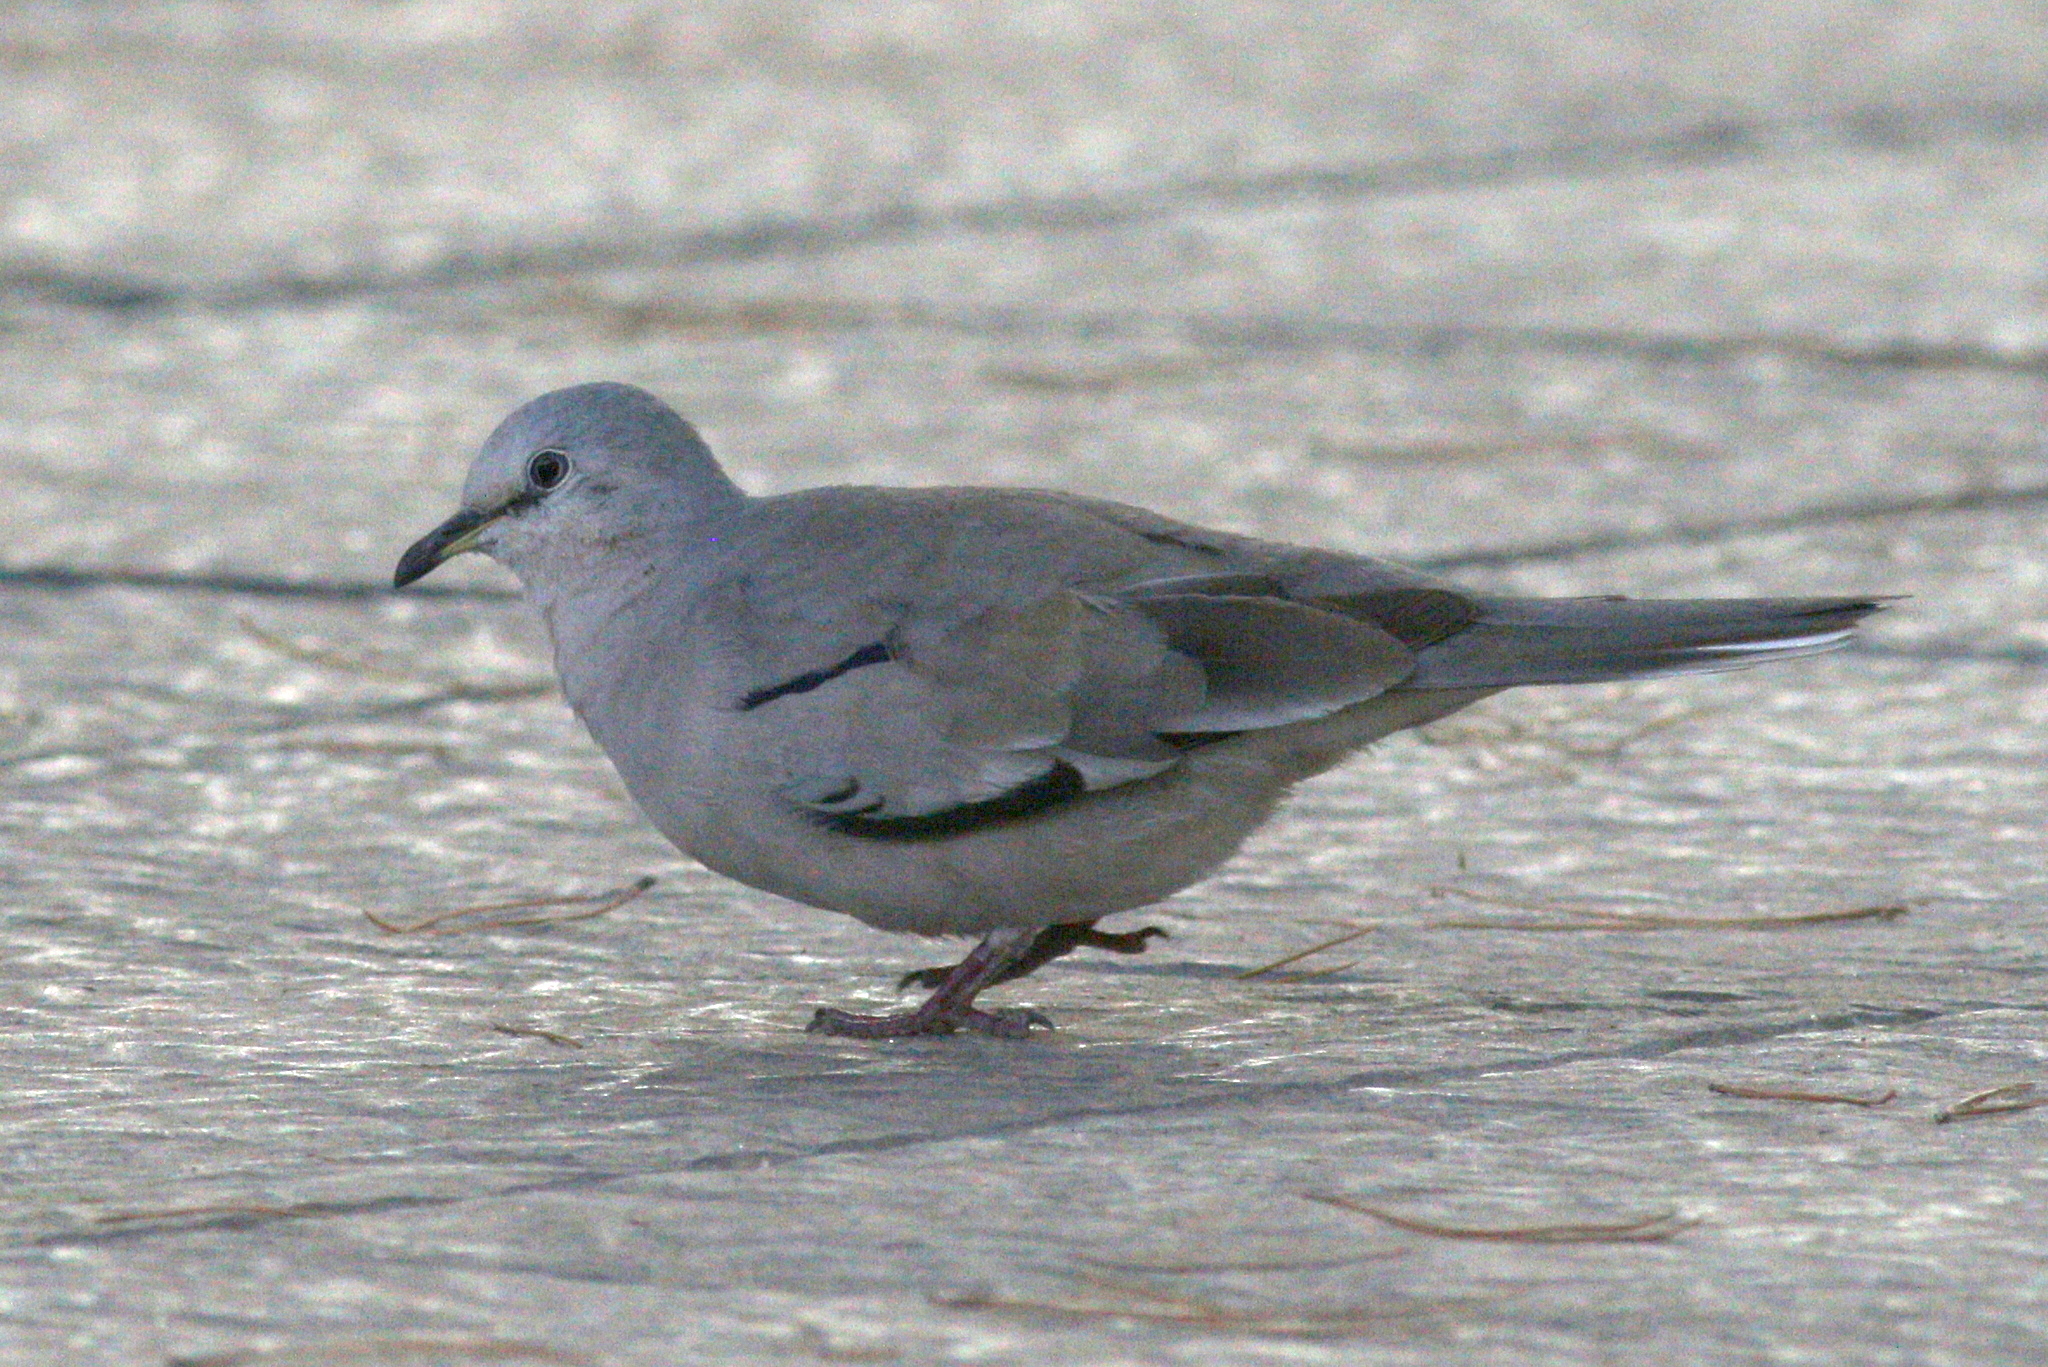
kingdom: Animalia
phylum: Chordata
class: Aves
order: Columbiformes
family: Columbidae
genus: Columbina
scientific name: Columbina picui
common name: Picui ground dove
